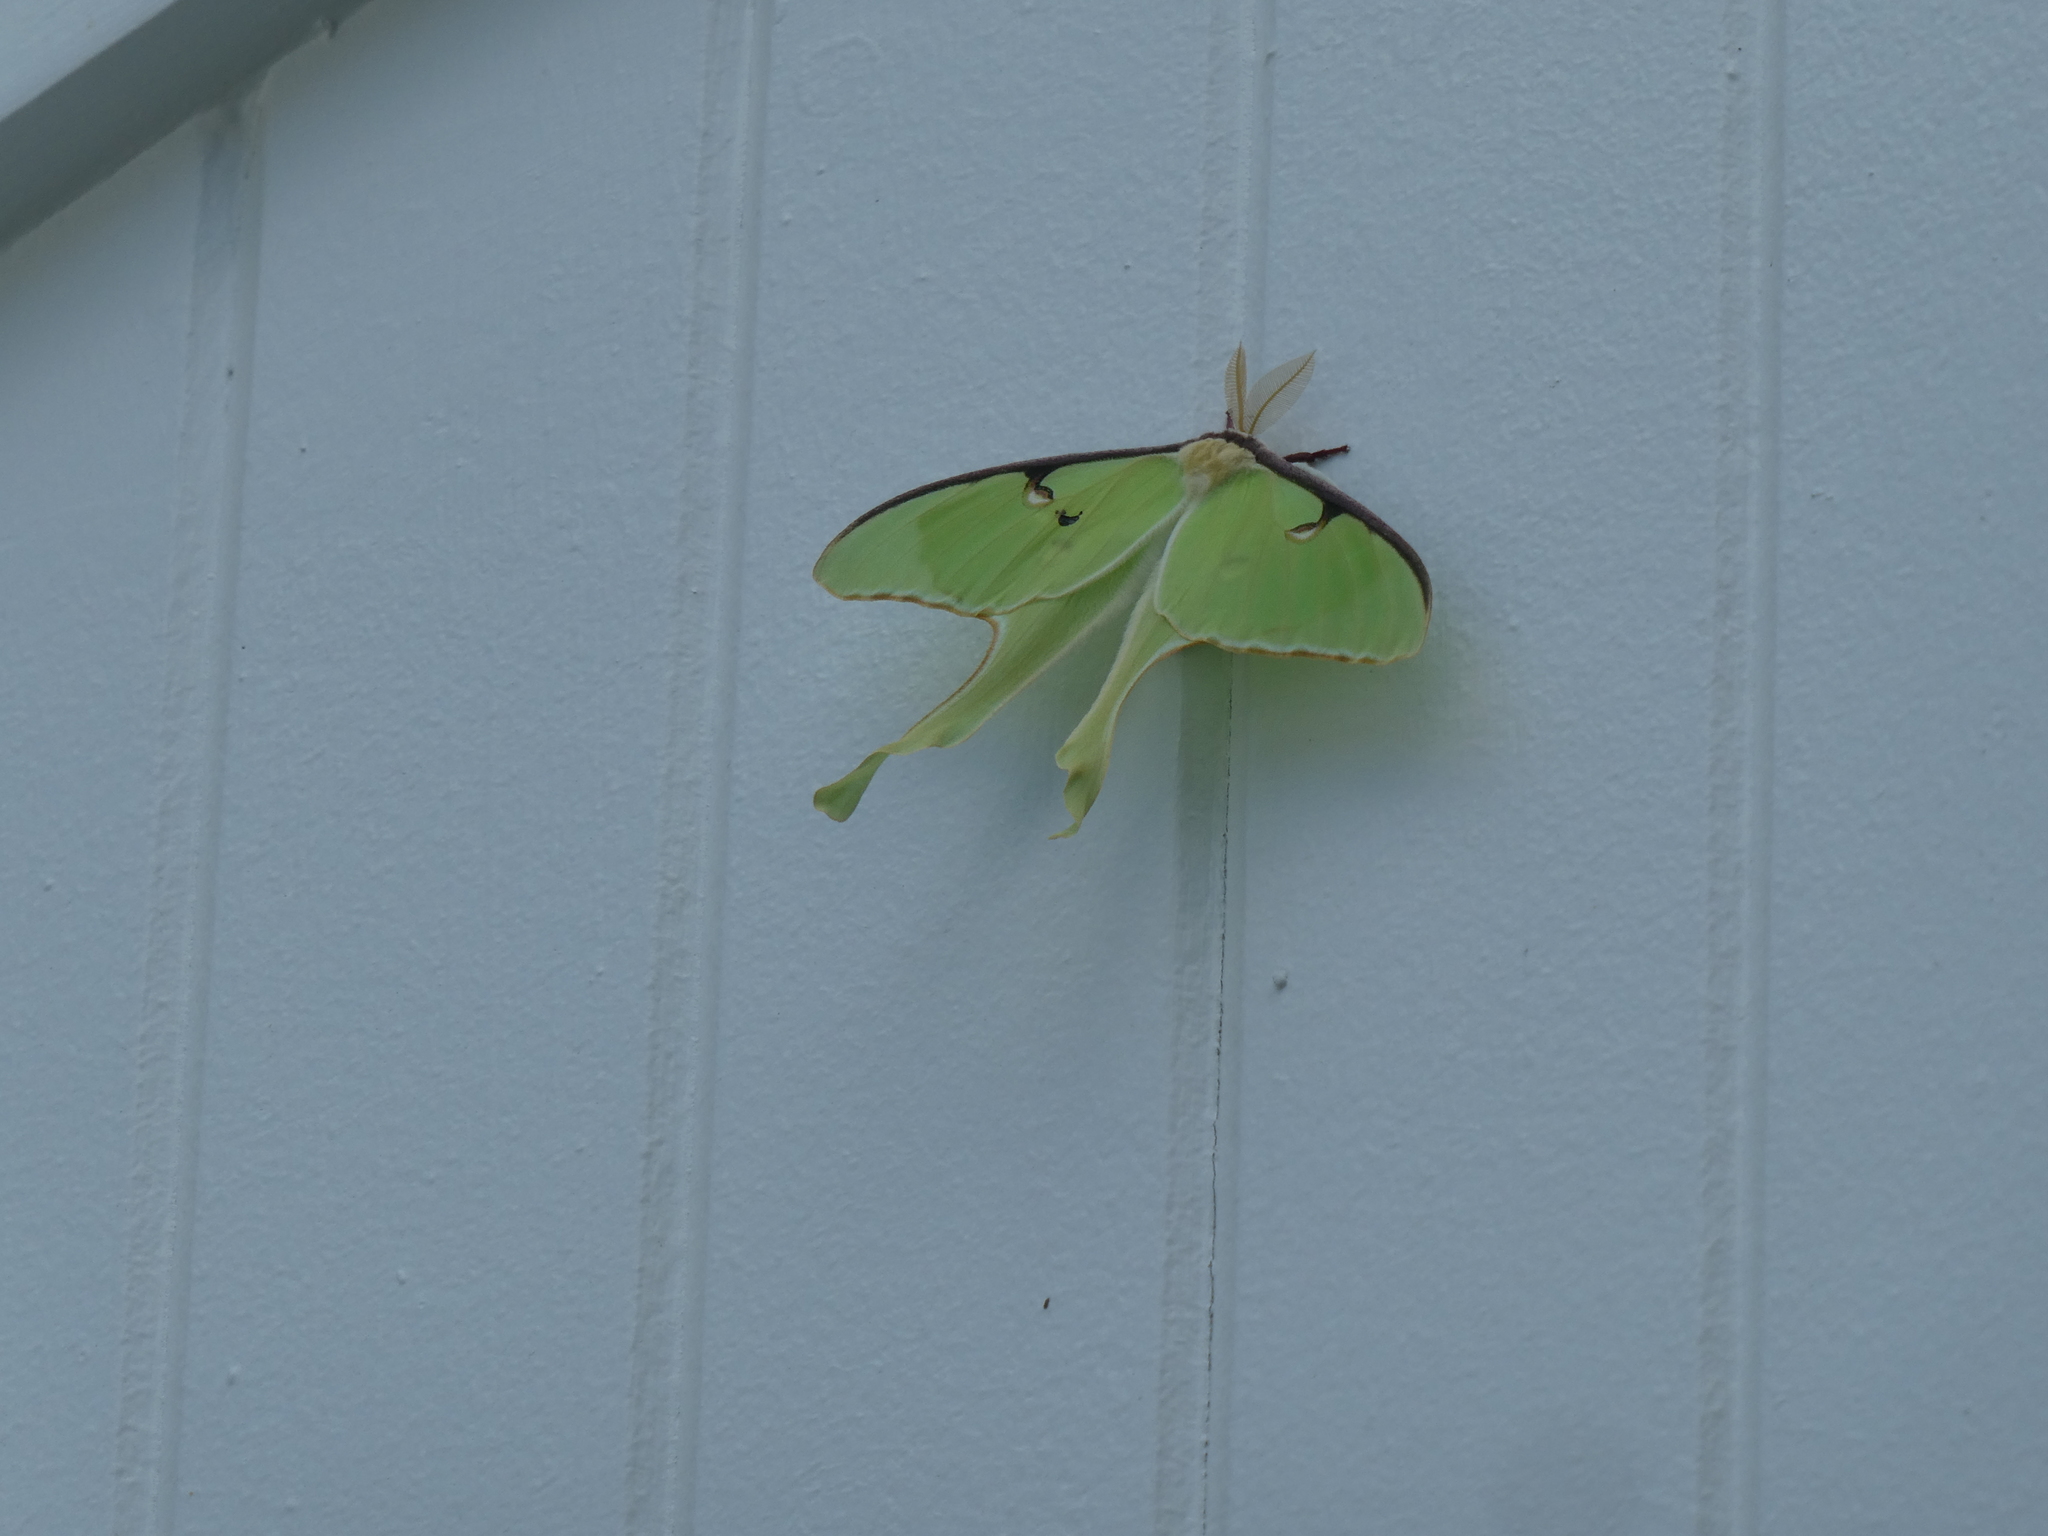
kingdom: Animalia
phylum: Arthropoda
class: Insecta
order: Lepidoptera
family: Saturniidae
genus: Actias
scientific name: Actias luna
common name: Luna moth
